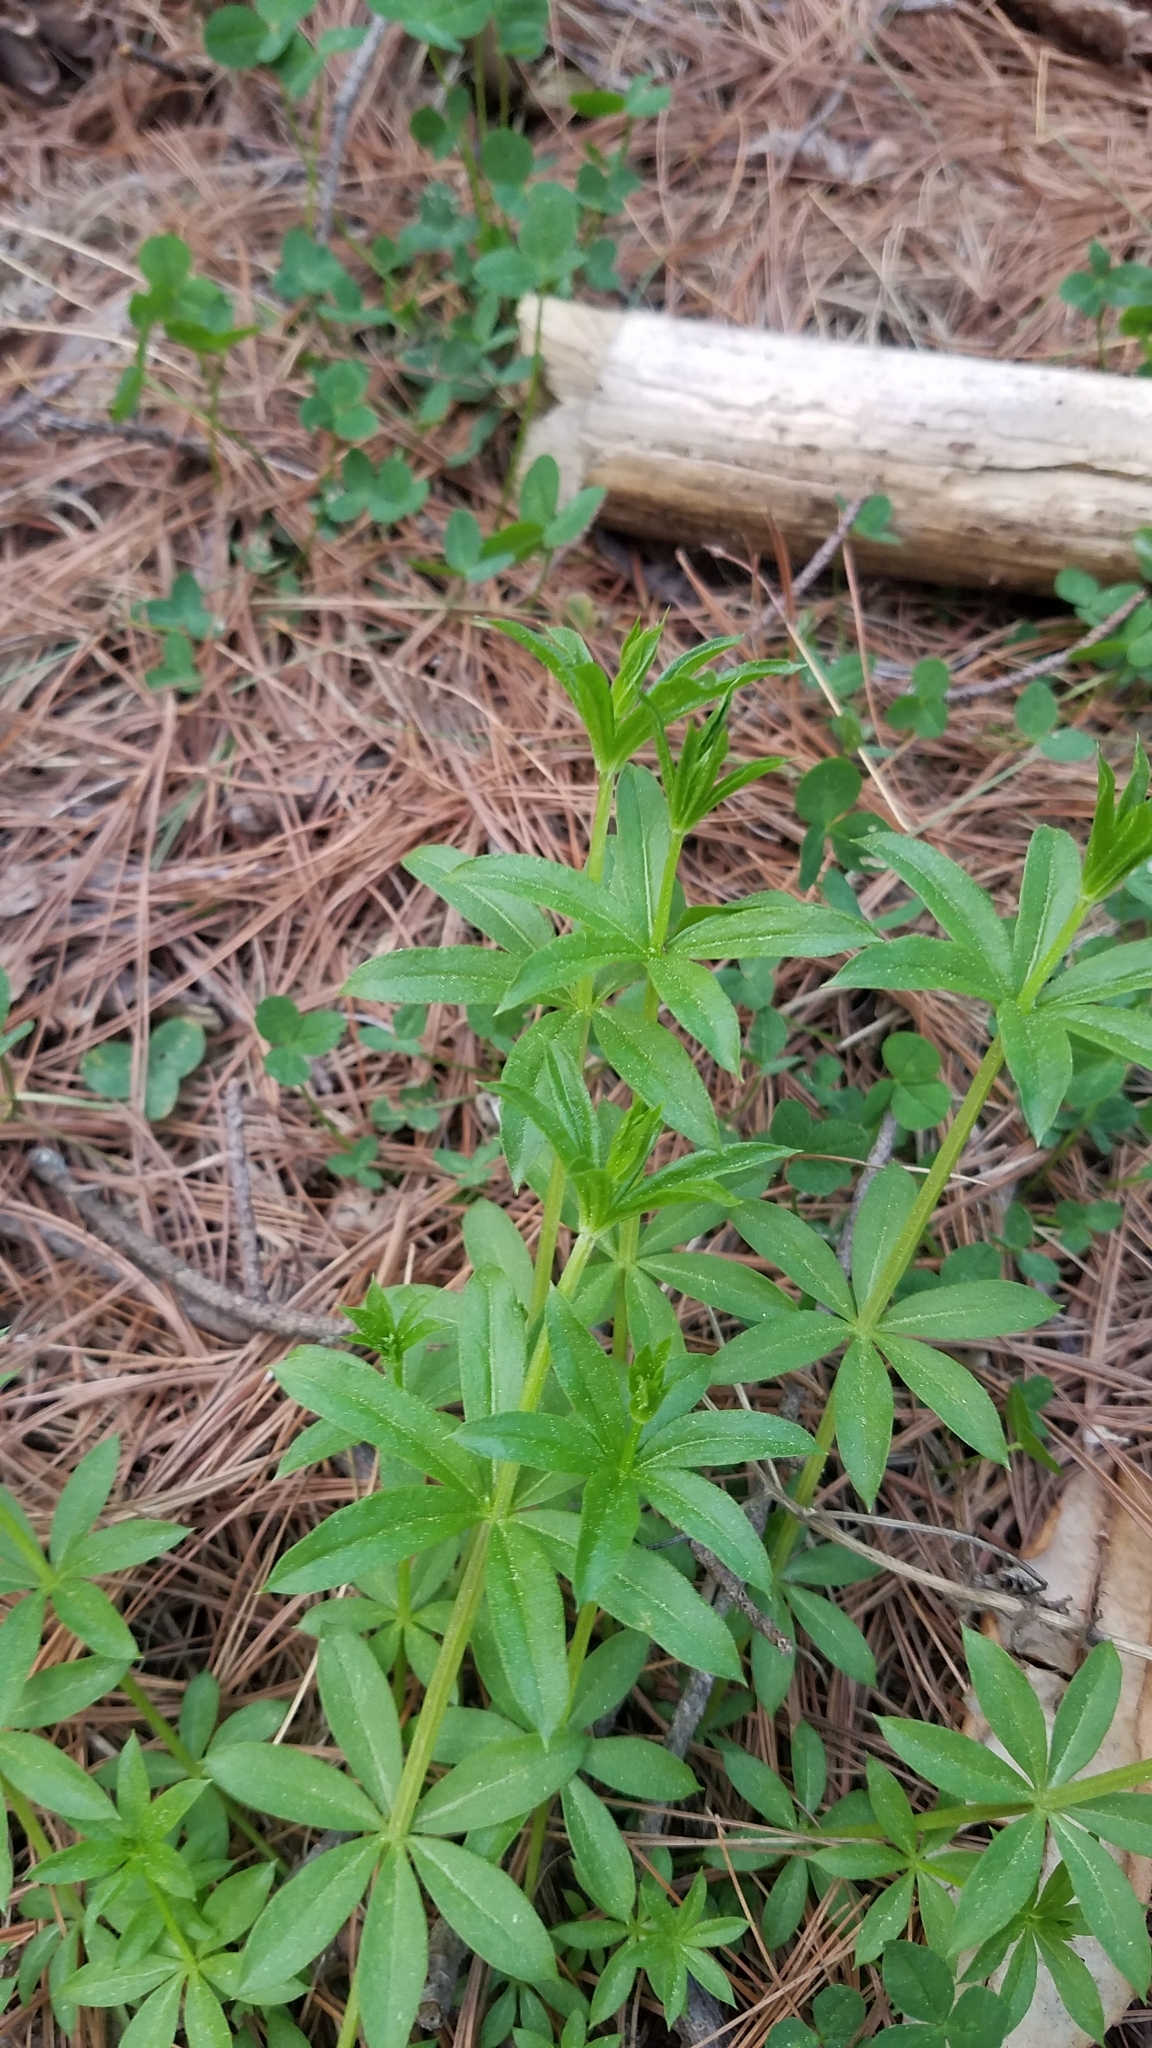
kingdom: Plantae
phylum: Tracheophyta
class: Magnoliopsida
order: Gentianales
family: Rubiaceae
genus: Galium
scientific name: Galium triflorum
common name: Fragrant bedstraw
